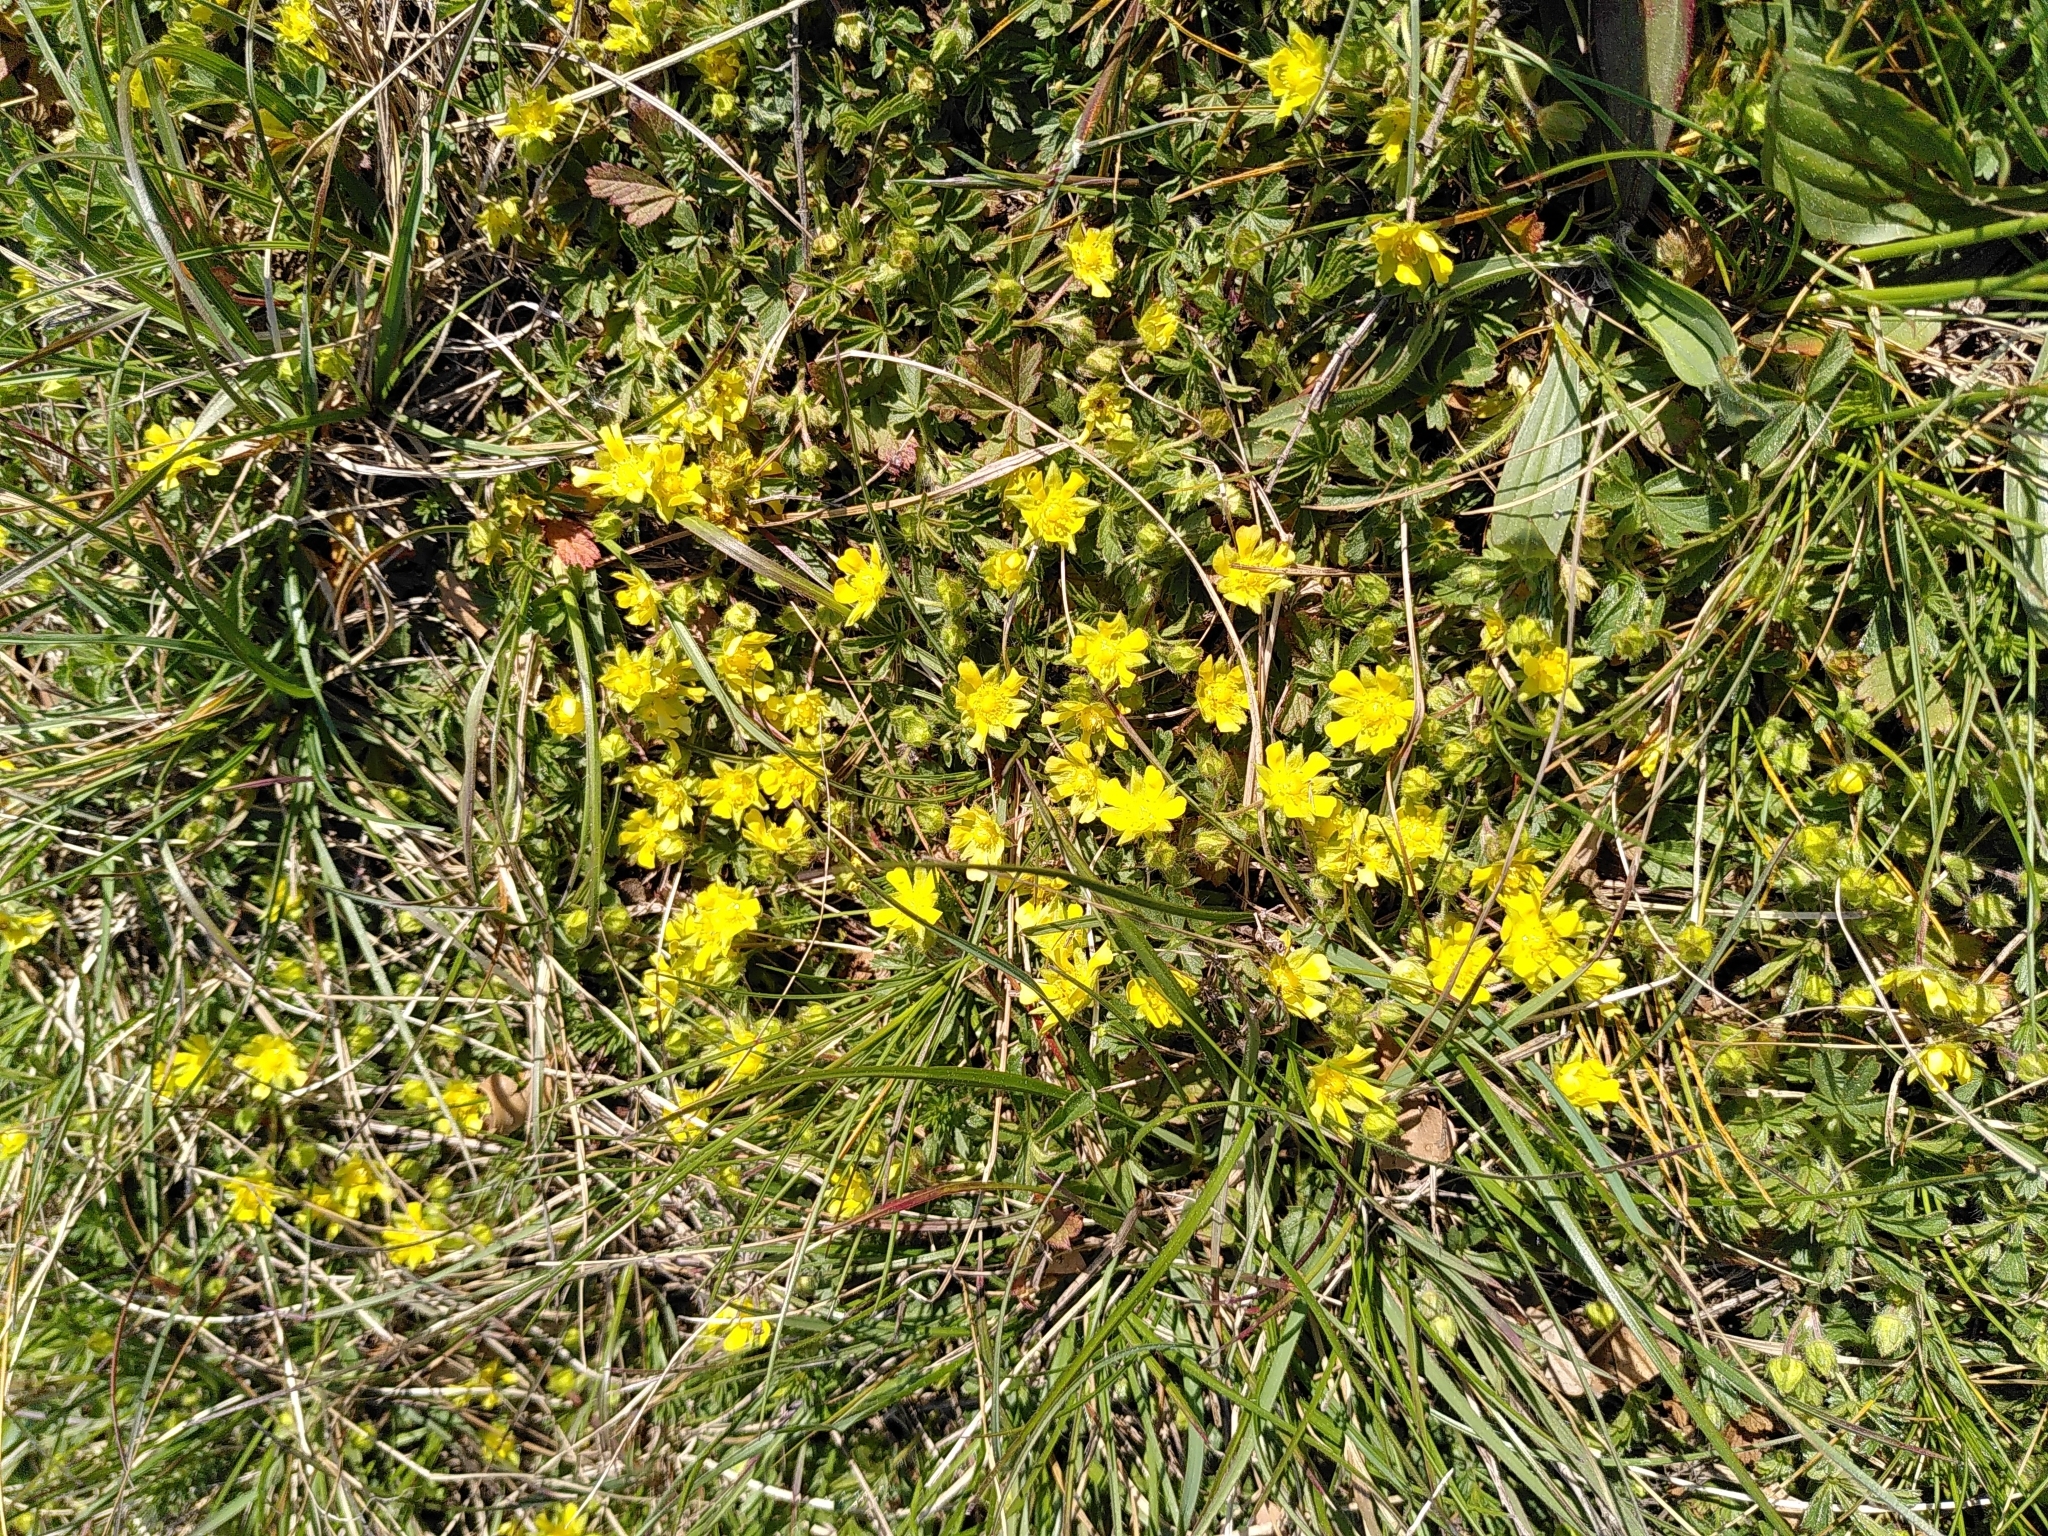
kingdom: Plantae
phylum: Tracheophyta
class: Magnoliopsida
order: Rosales
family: Rosaceae
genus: Potentilla
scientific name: Potentilla verna
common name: Spring cinquefoil
